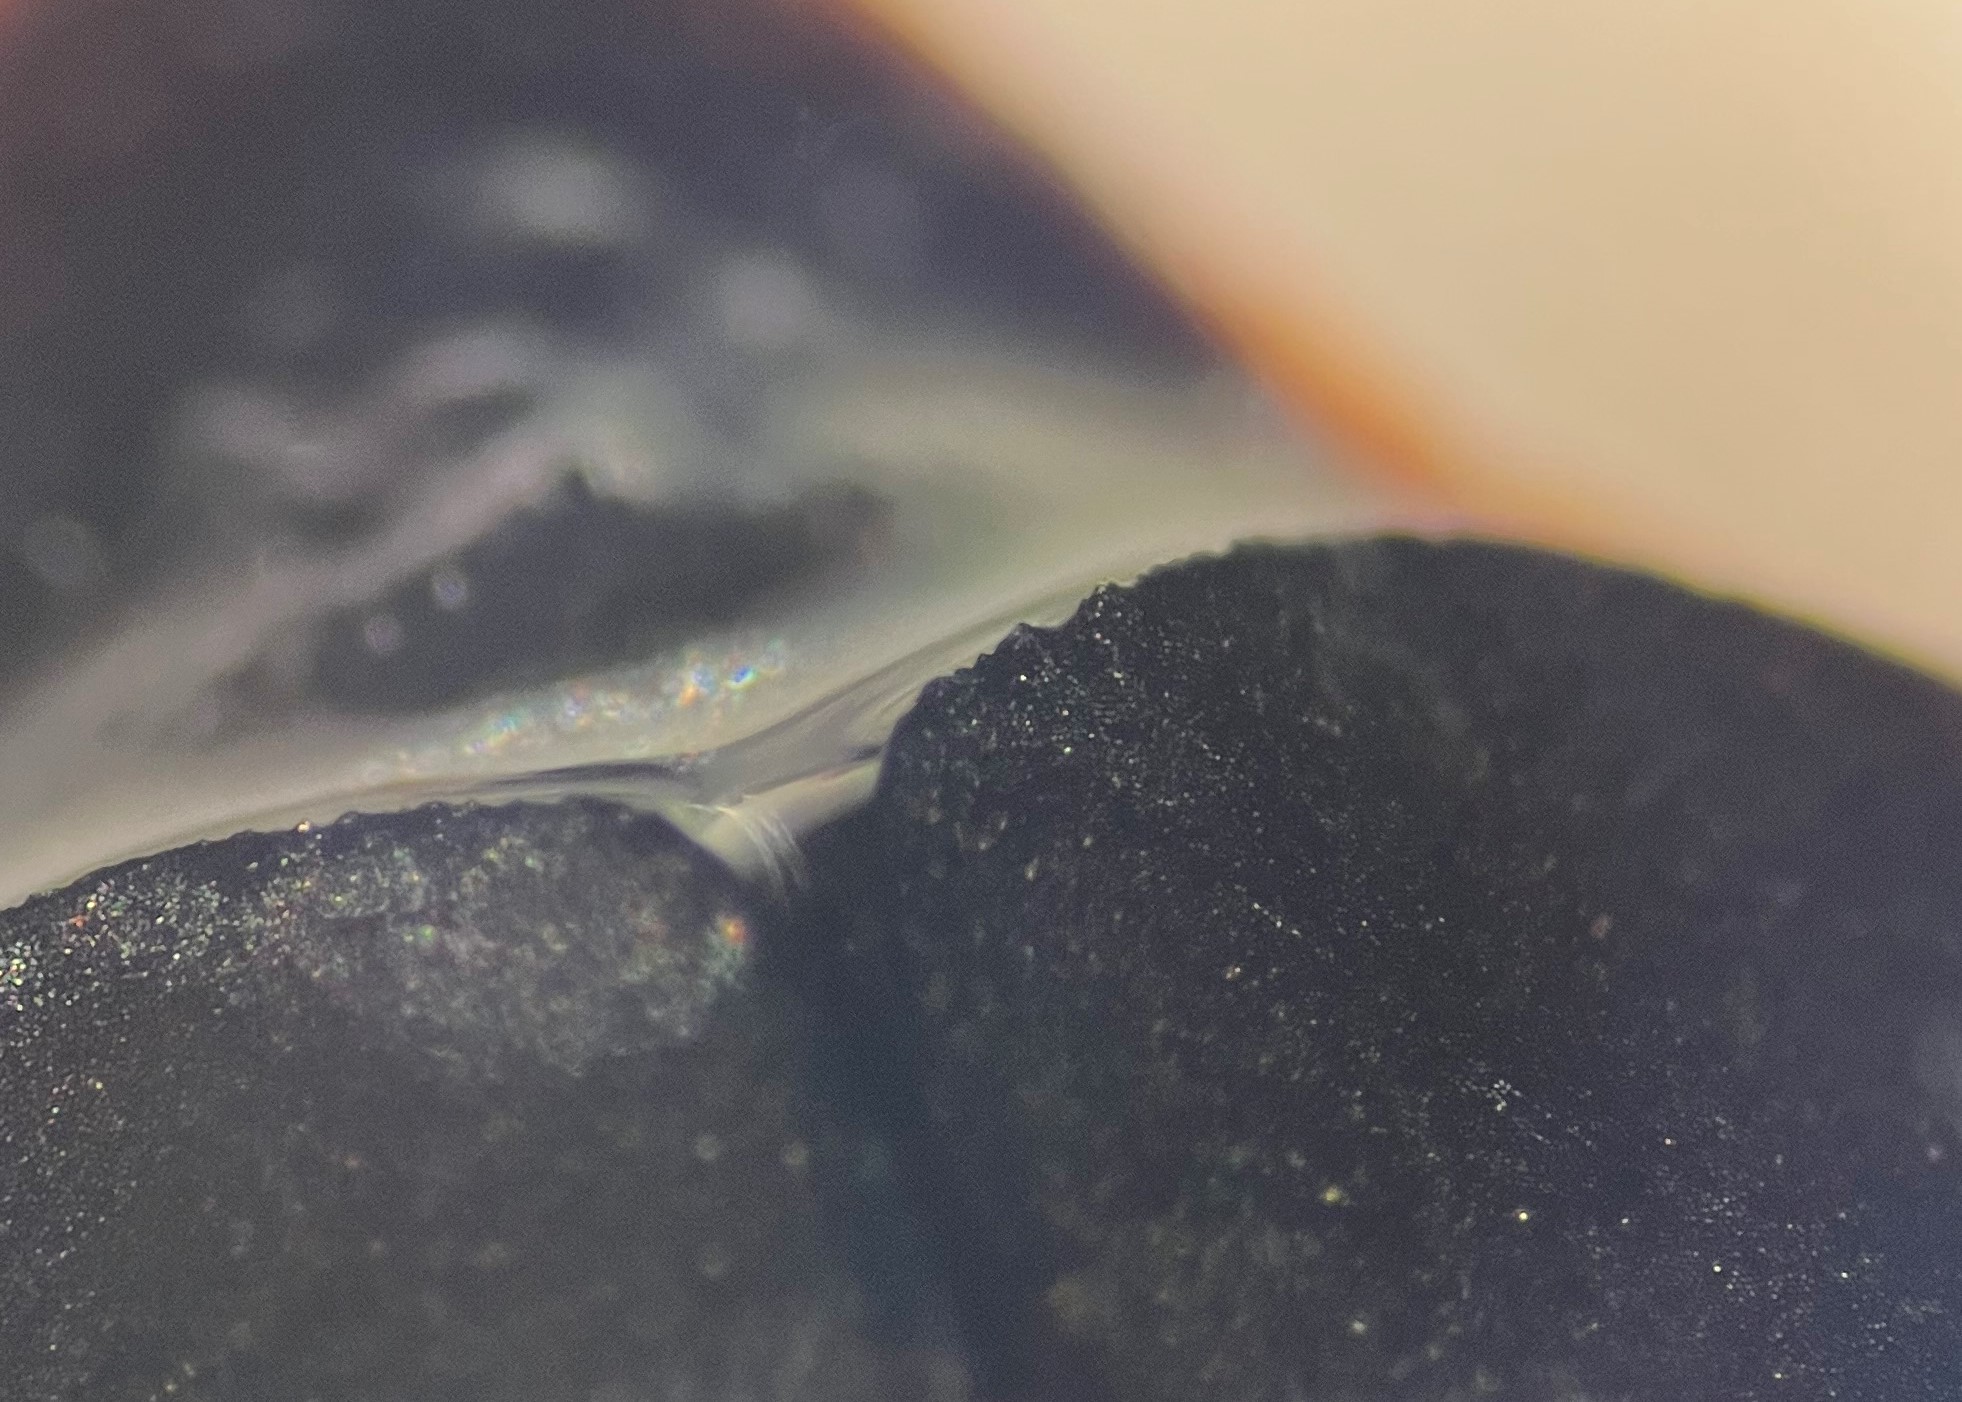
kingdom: Animalia
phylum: Arthropoda
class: Insecta
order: Coleoptera
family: Gyrinidae
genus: Dineutus
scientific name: Dineutus carolinus
